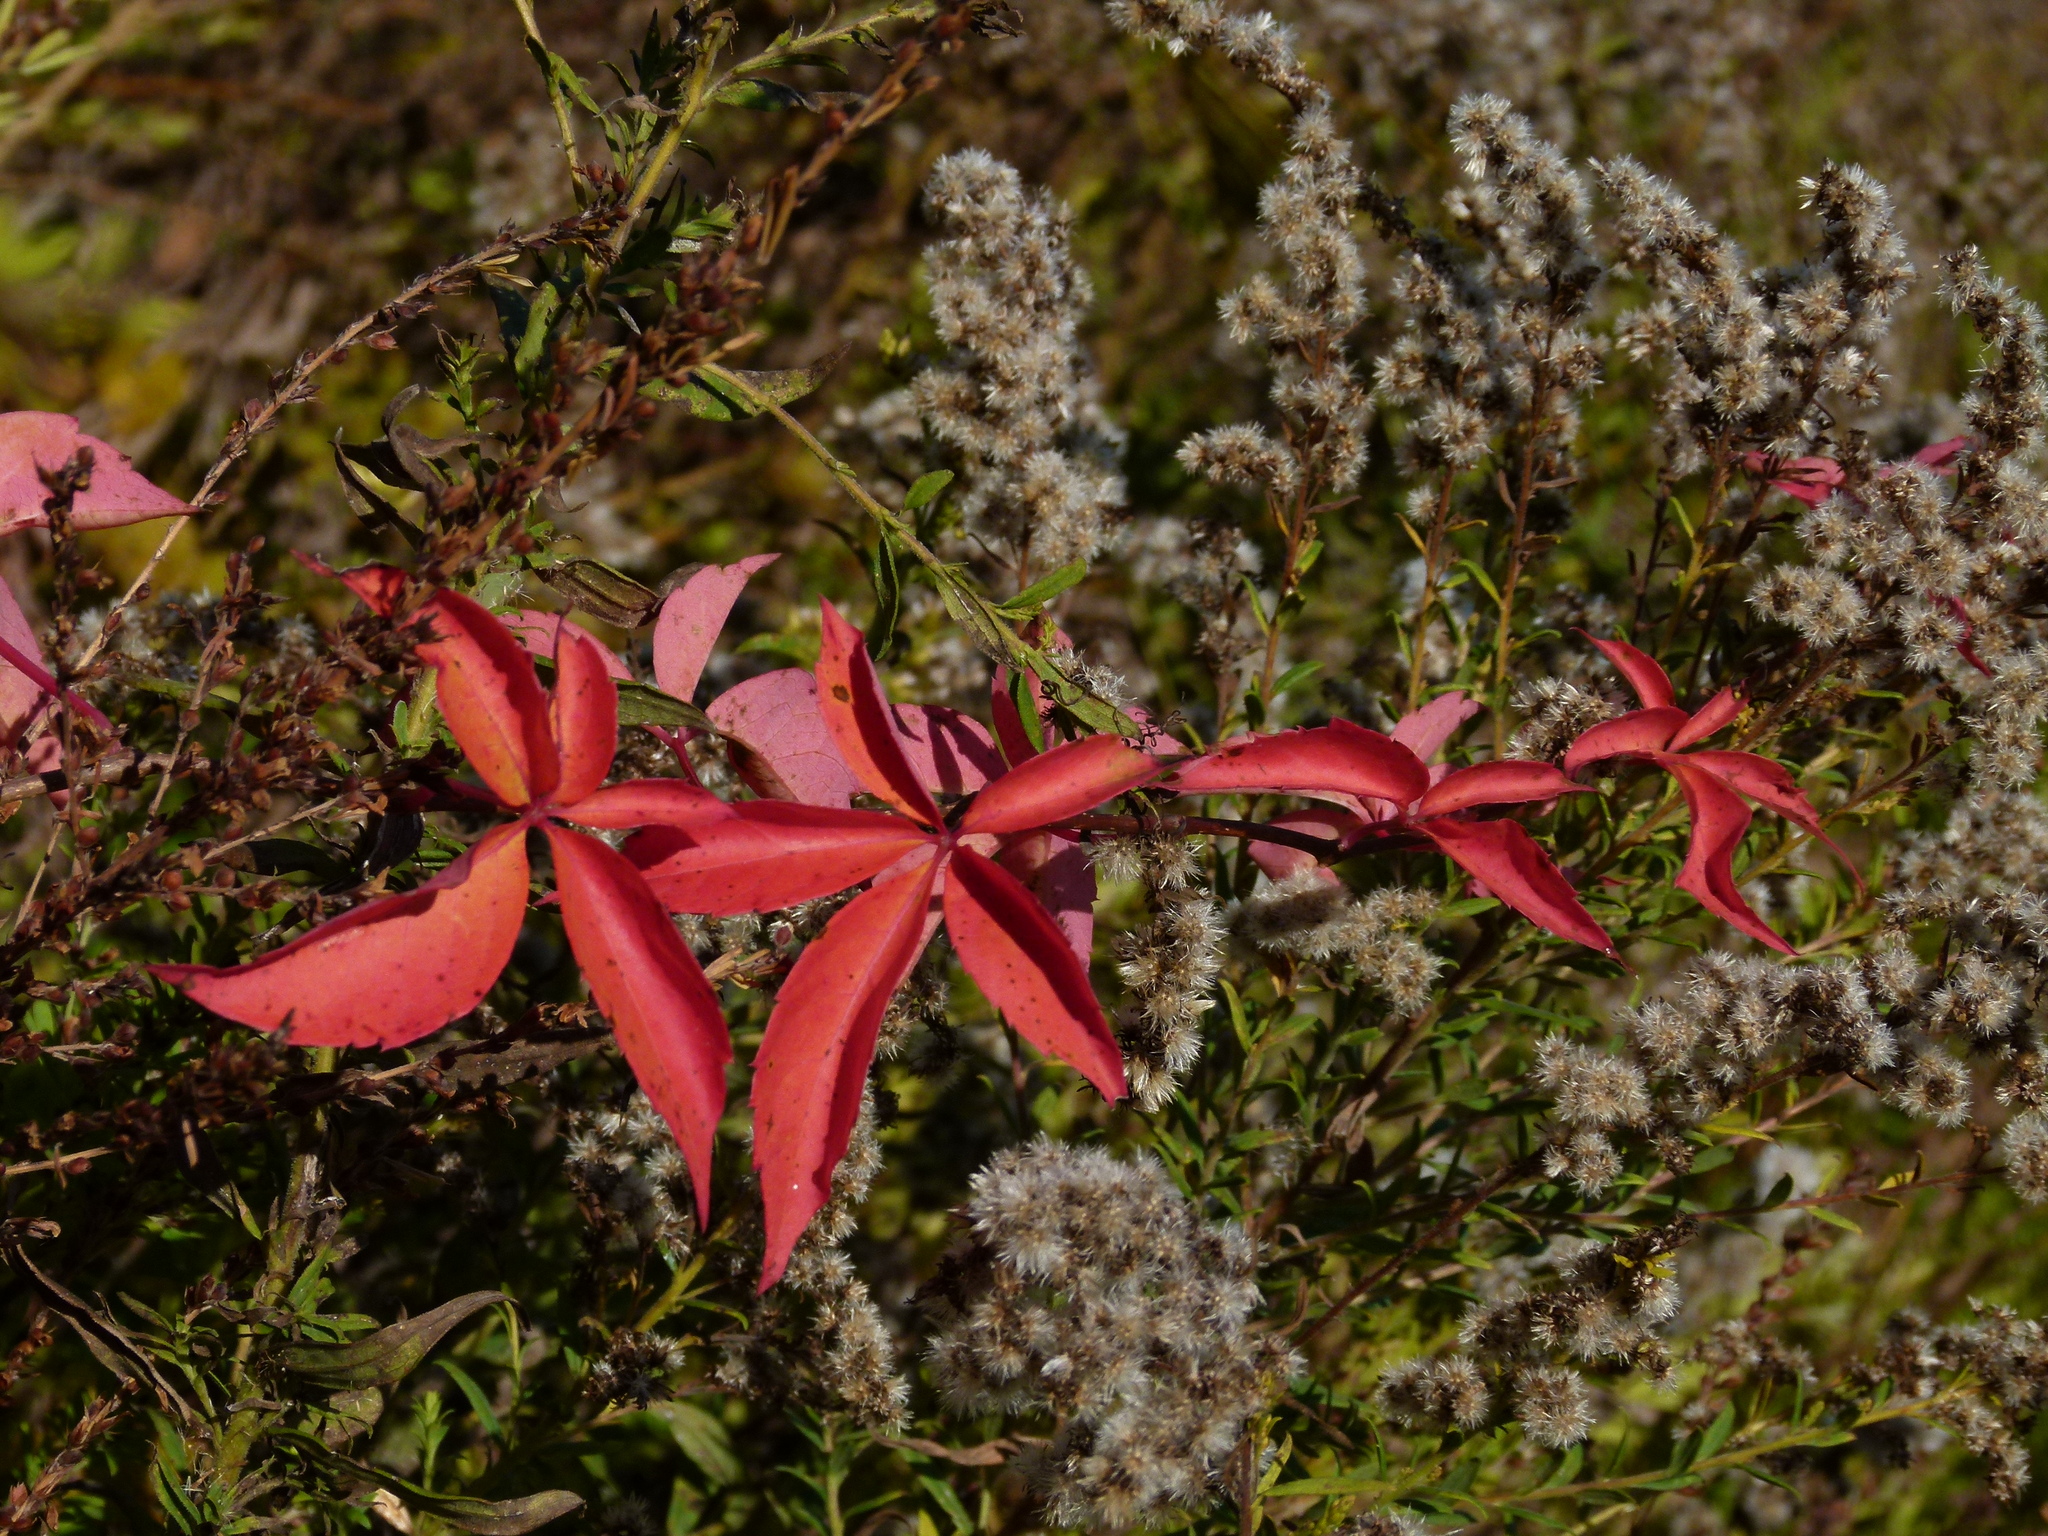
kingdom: Plantae
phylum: Tracheophyta
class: Magnoliopsida
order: Vitales
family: Vitaceae
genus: Parthenocissus
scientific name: Parthenocissus quinquefolia
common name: Virginia-creeper
